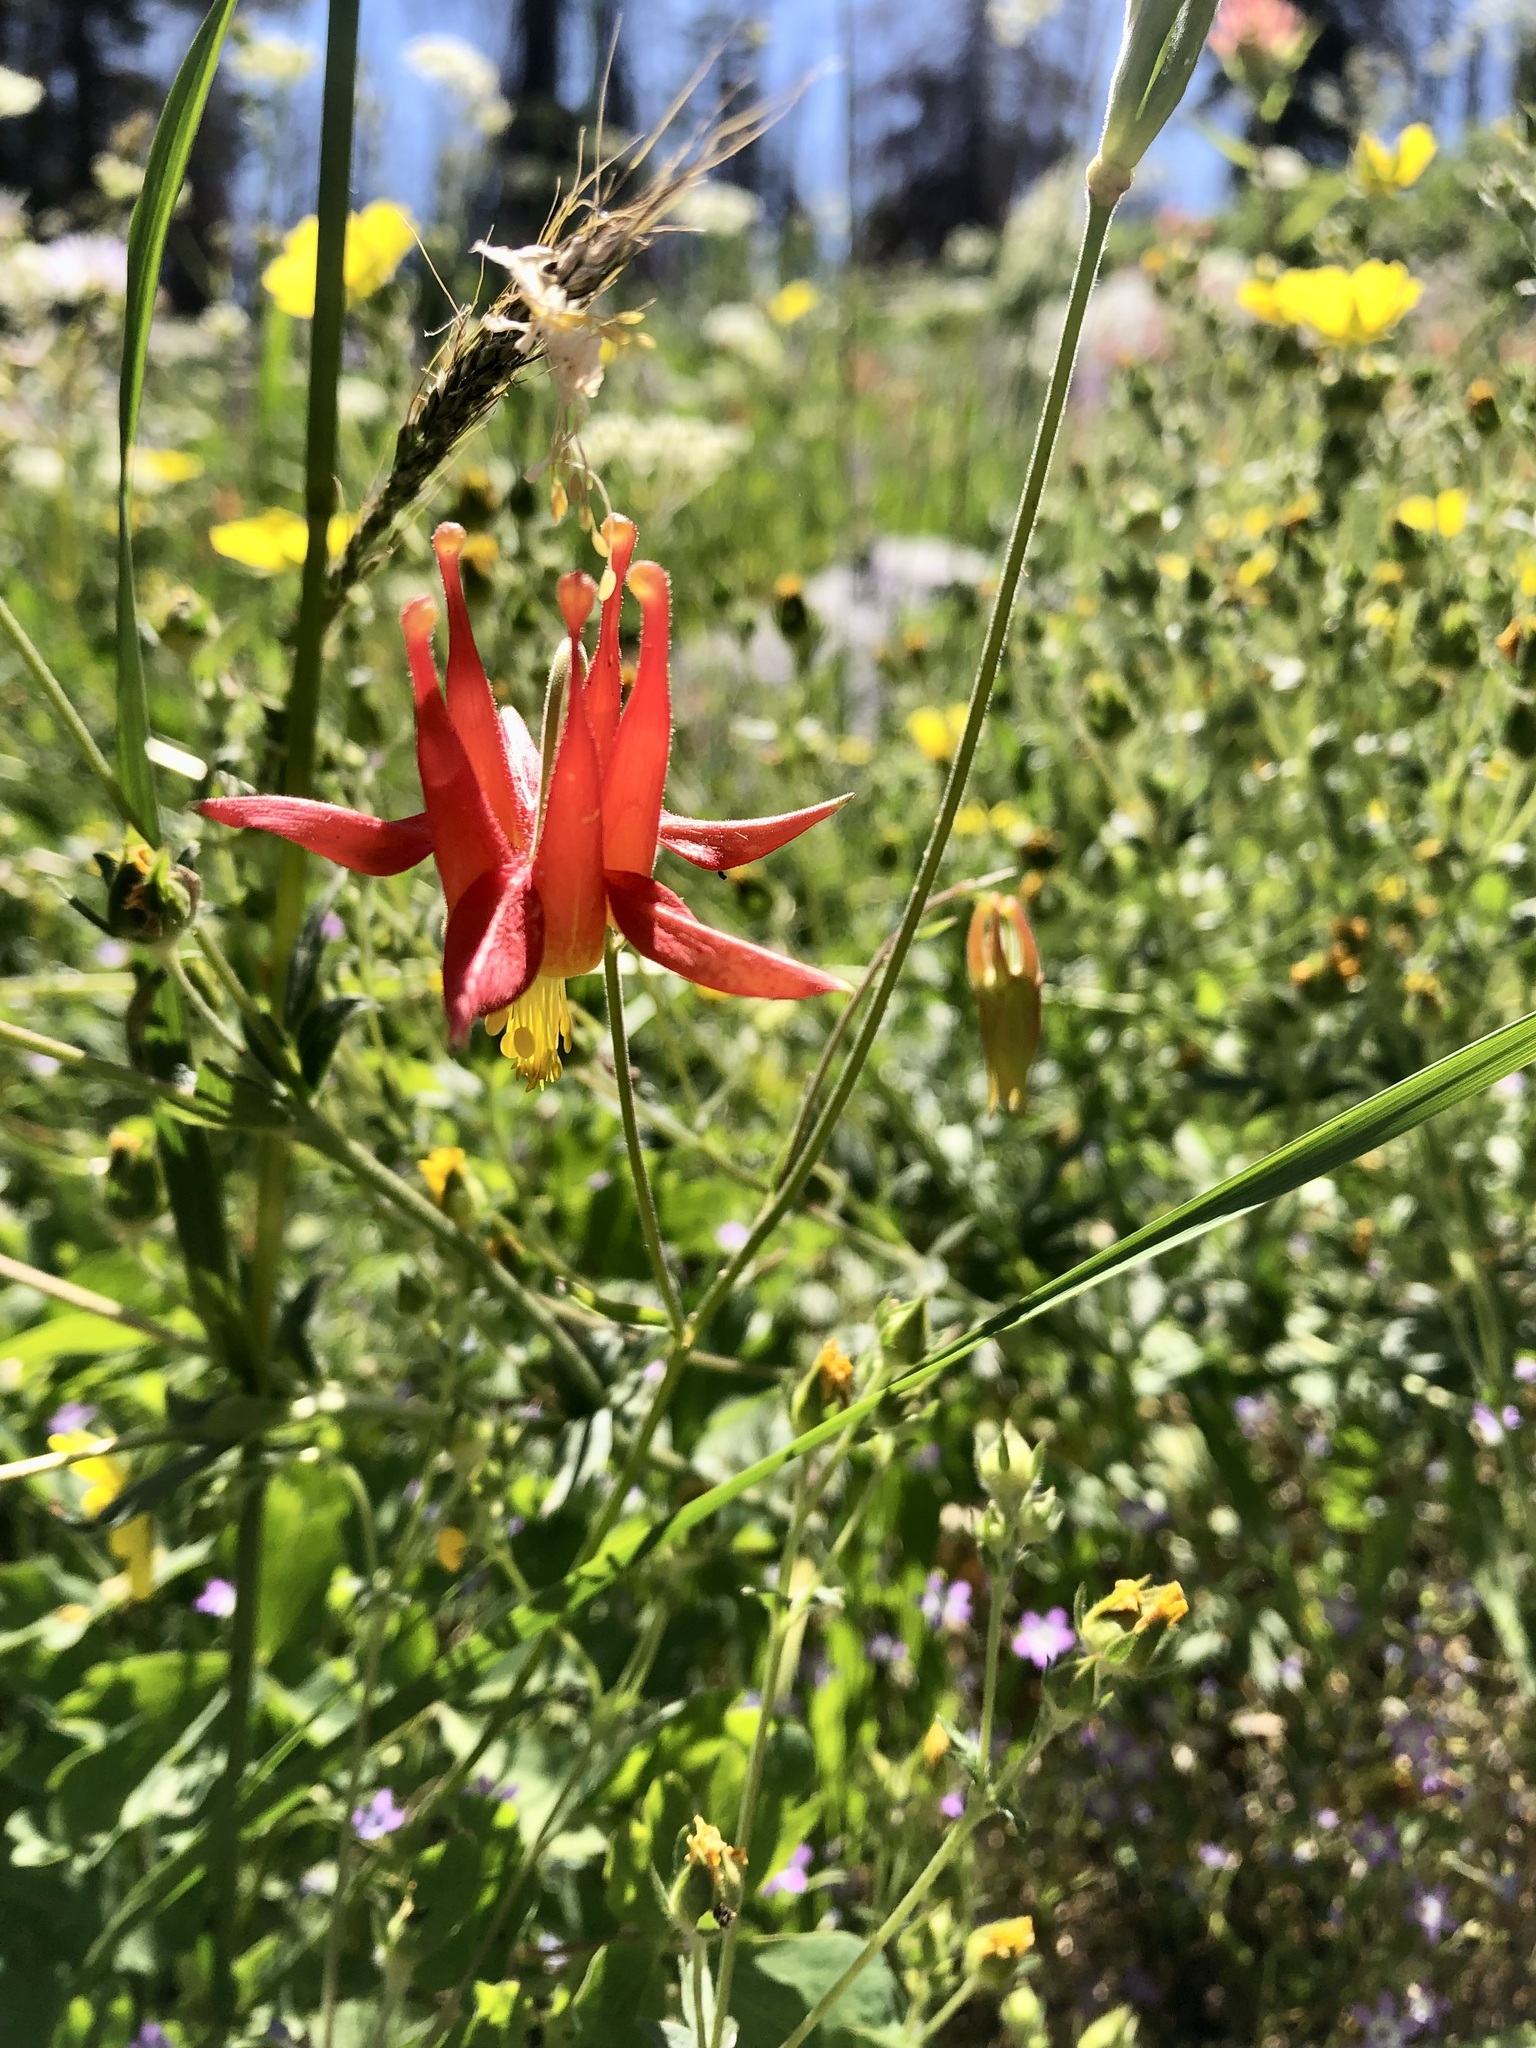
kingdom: Plantae
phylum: Tracheophyta
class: Magnoliopsida
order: Ranunculales
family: Ranunculaceae
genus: Aquilegia
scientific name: Aquilegia formosa
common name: Sitka columbine
